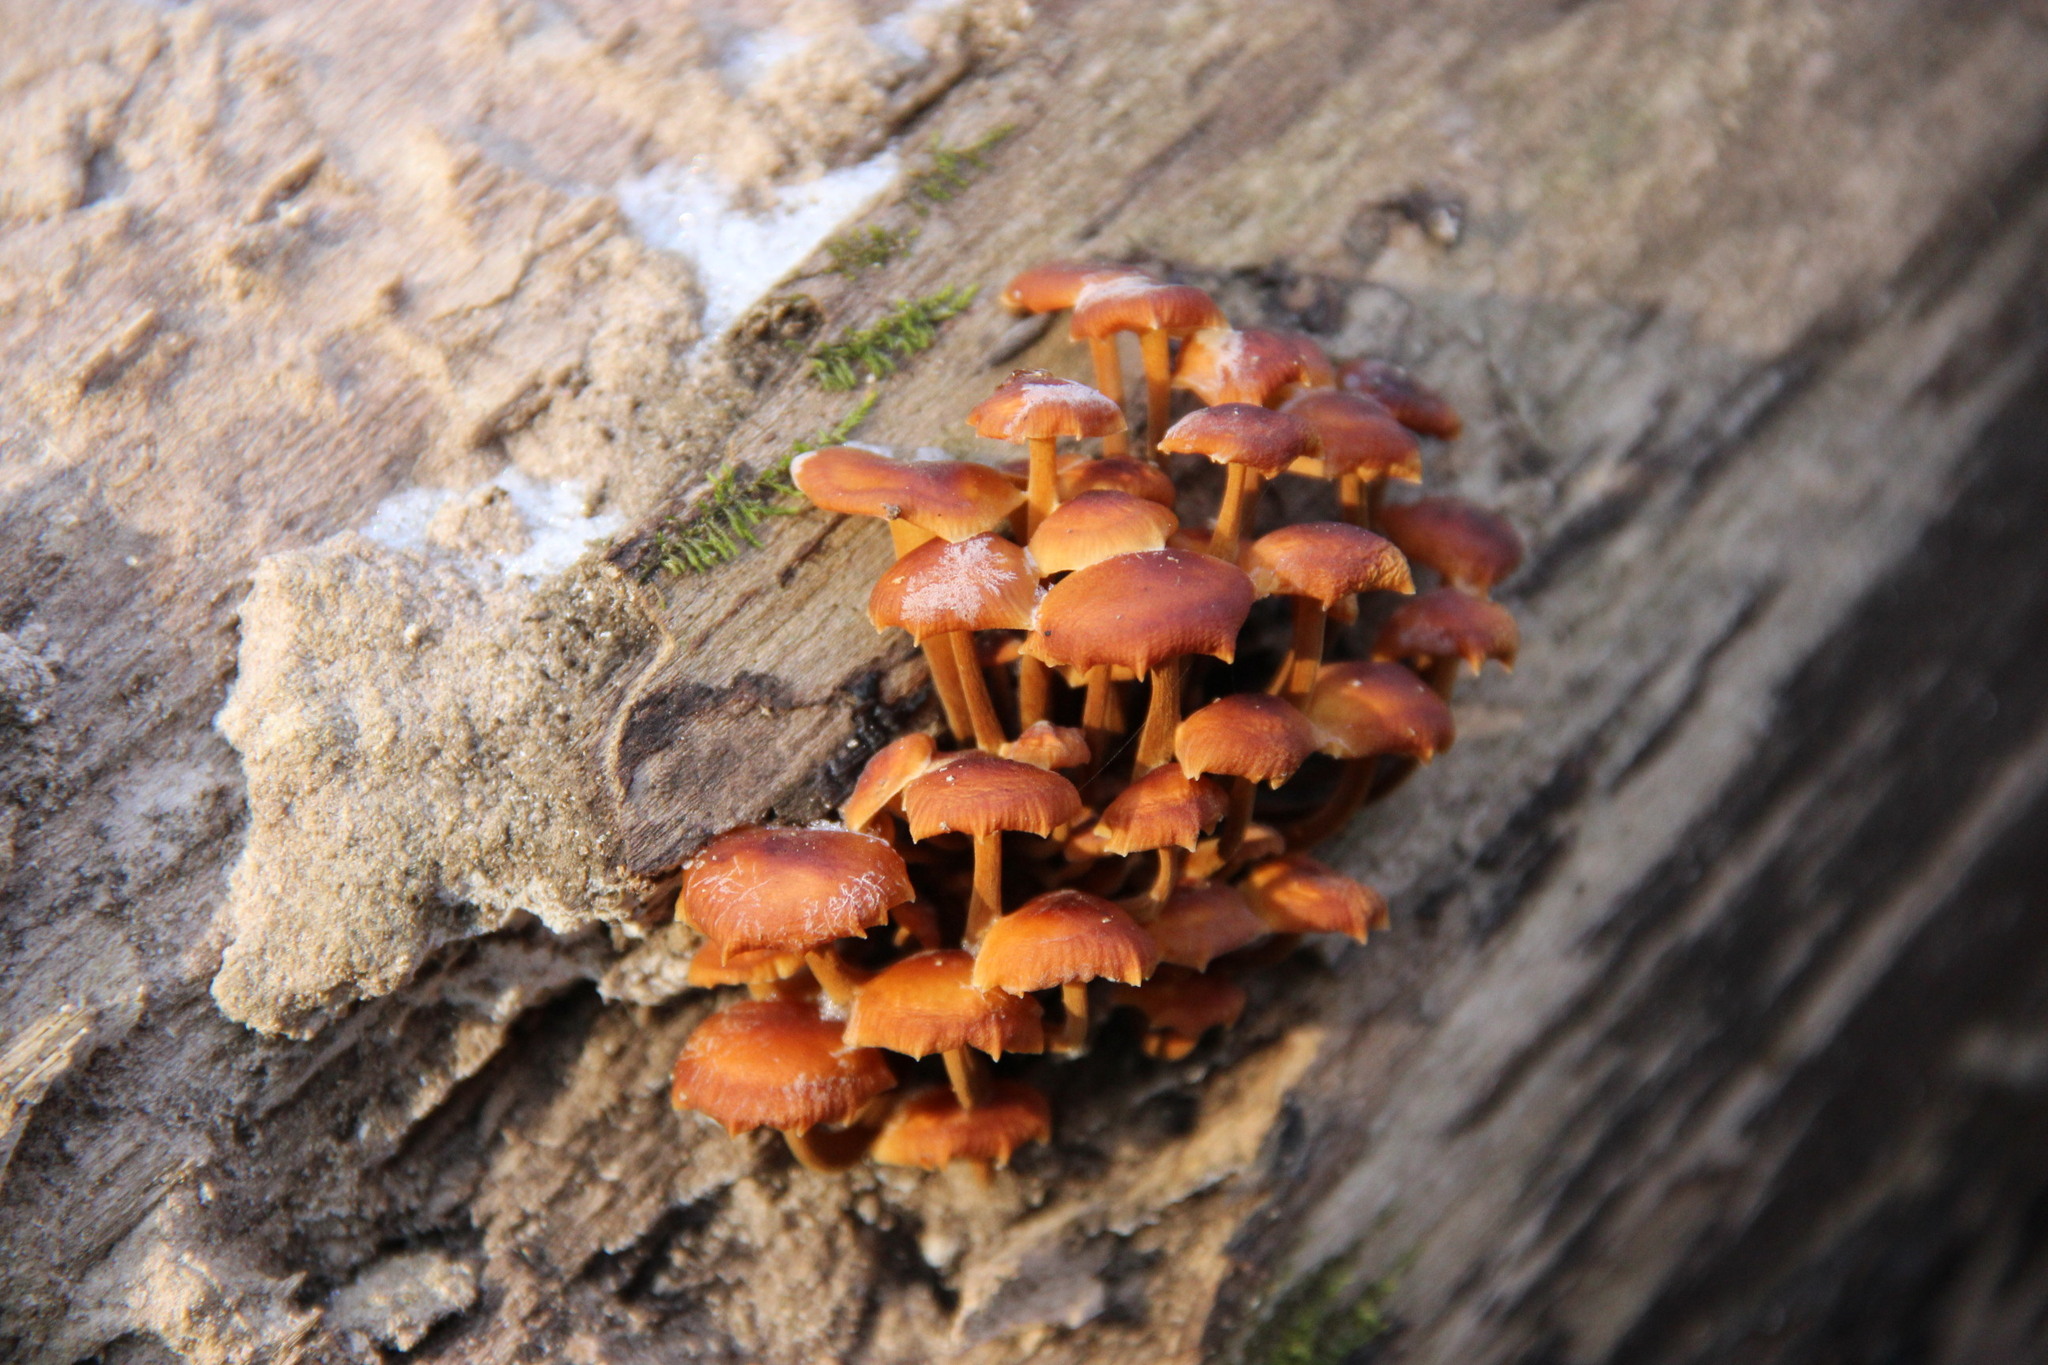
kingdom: Fungi
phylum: Basidiomycota
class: Agaricomycetes
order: Agaricales
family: Physalacriaceae
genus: Flammulina
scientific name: Flammulina
